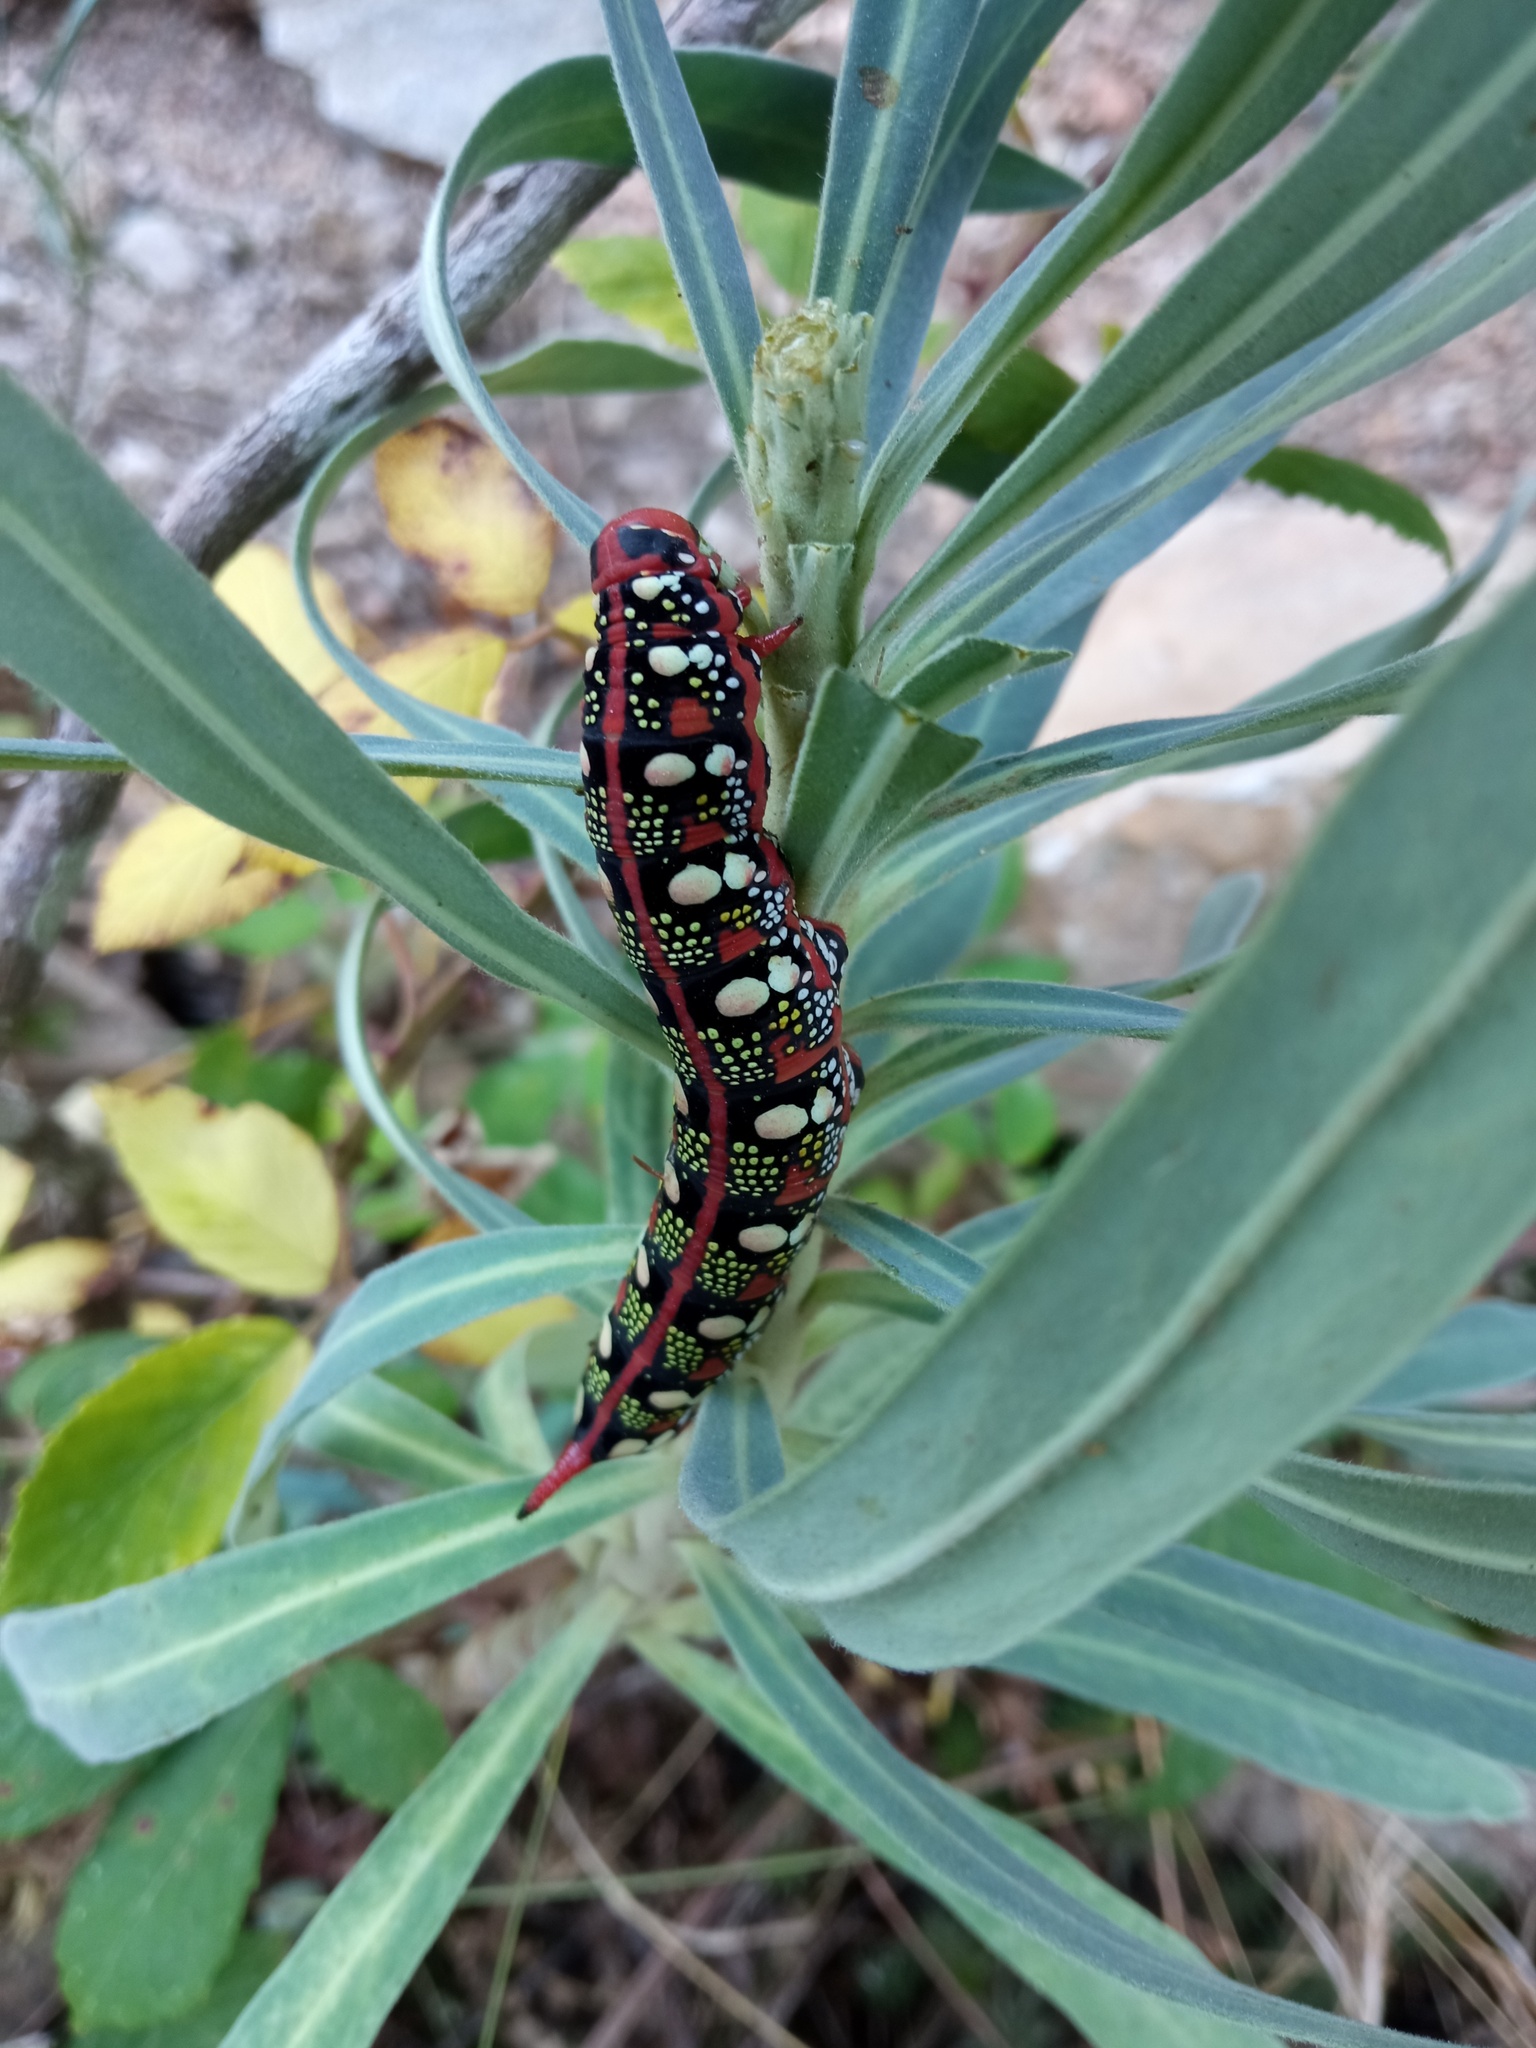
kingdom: Animalia
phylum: Arthropoda
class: Insecta
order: Lepidoptera
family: Sphingidae
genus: Hyles
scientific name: Hyles euphorbiae
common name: Spurge hawk-moth
